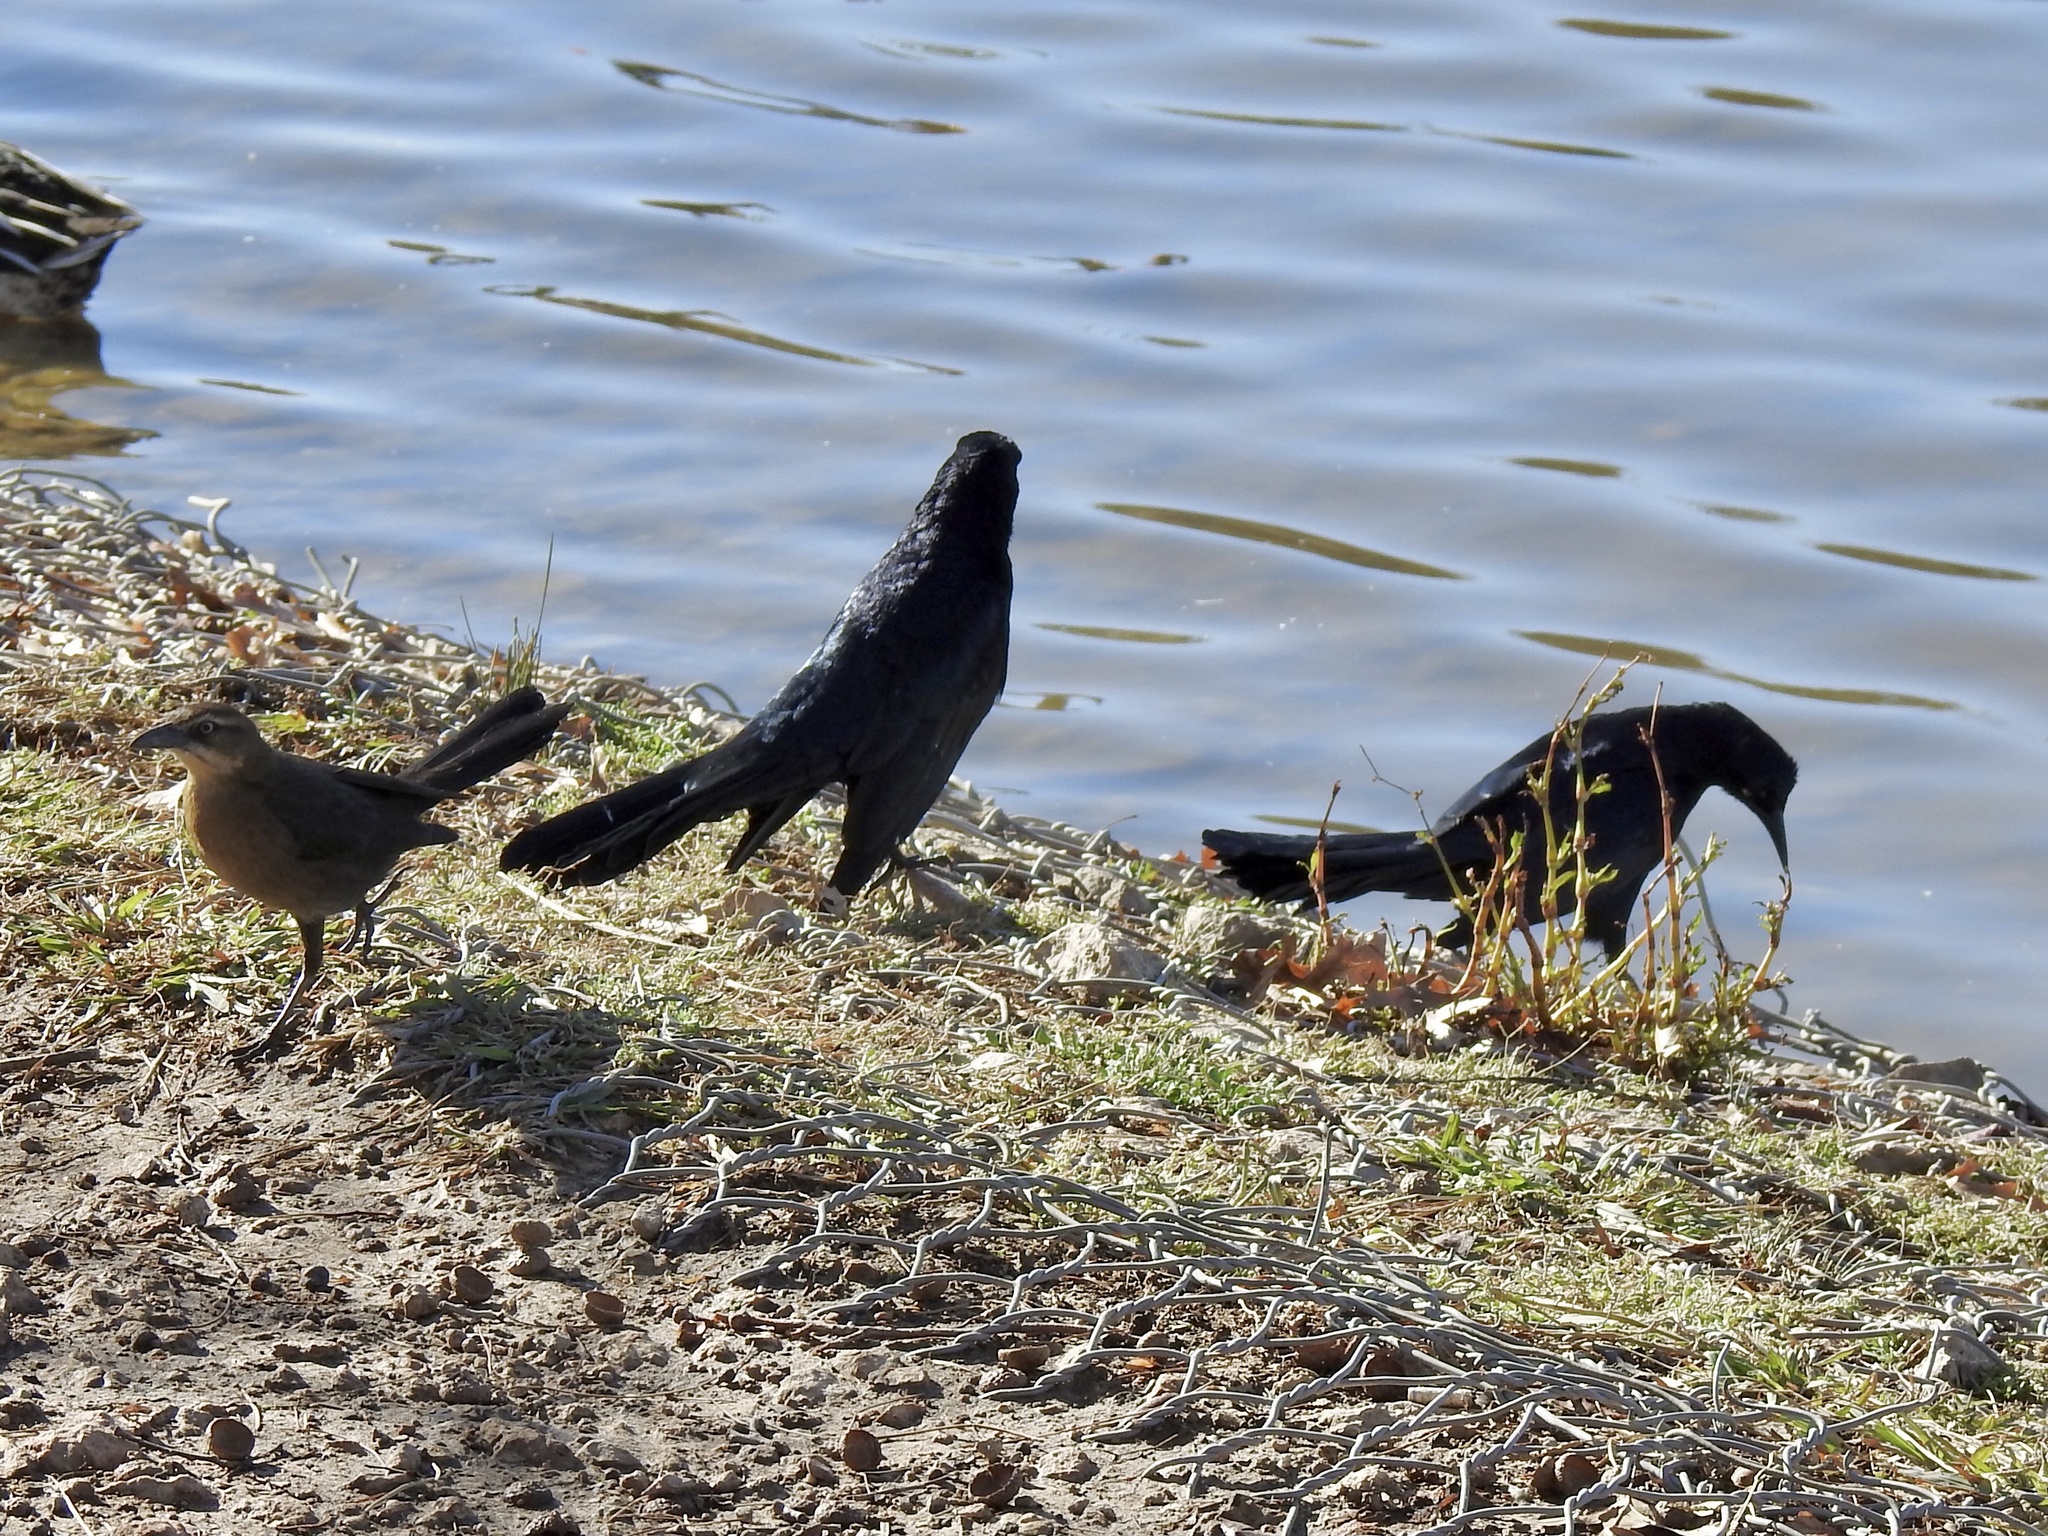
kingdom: Animalia
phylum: Chordata
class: Aves
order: Passeriformes
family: Icteridae
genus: Quiscalus
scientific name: Quiscalus mexicanus
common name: Great-tailed grackle
